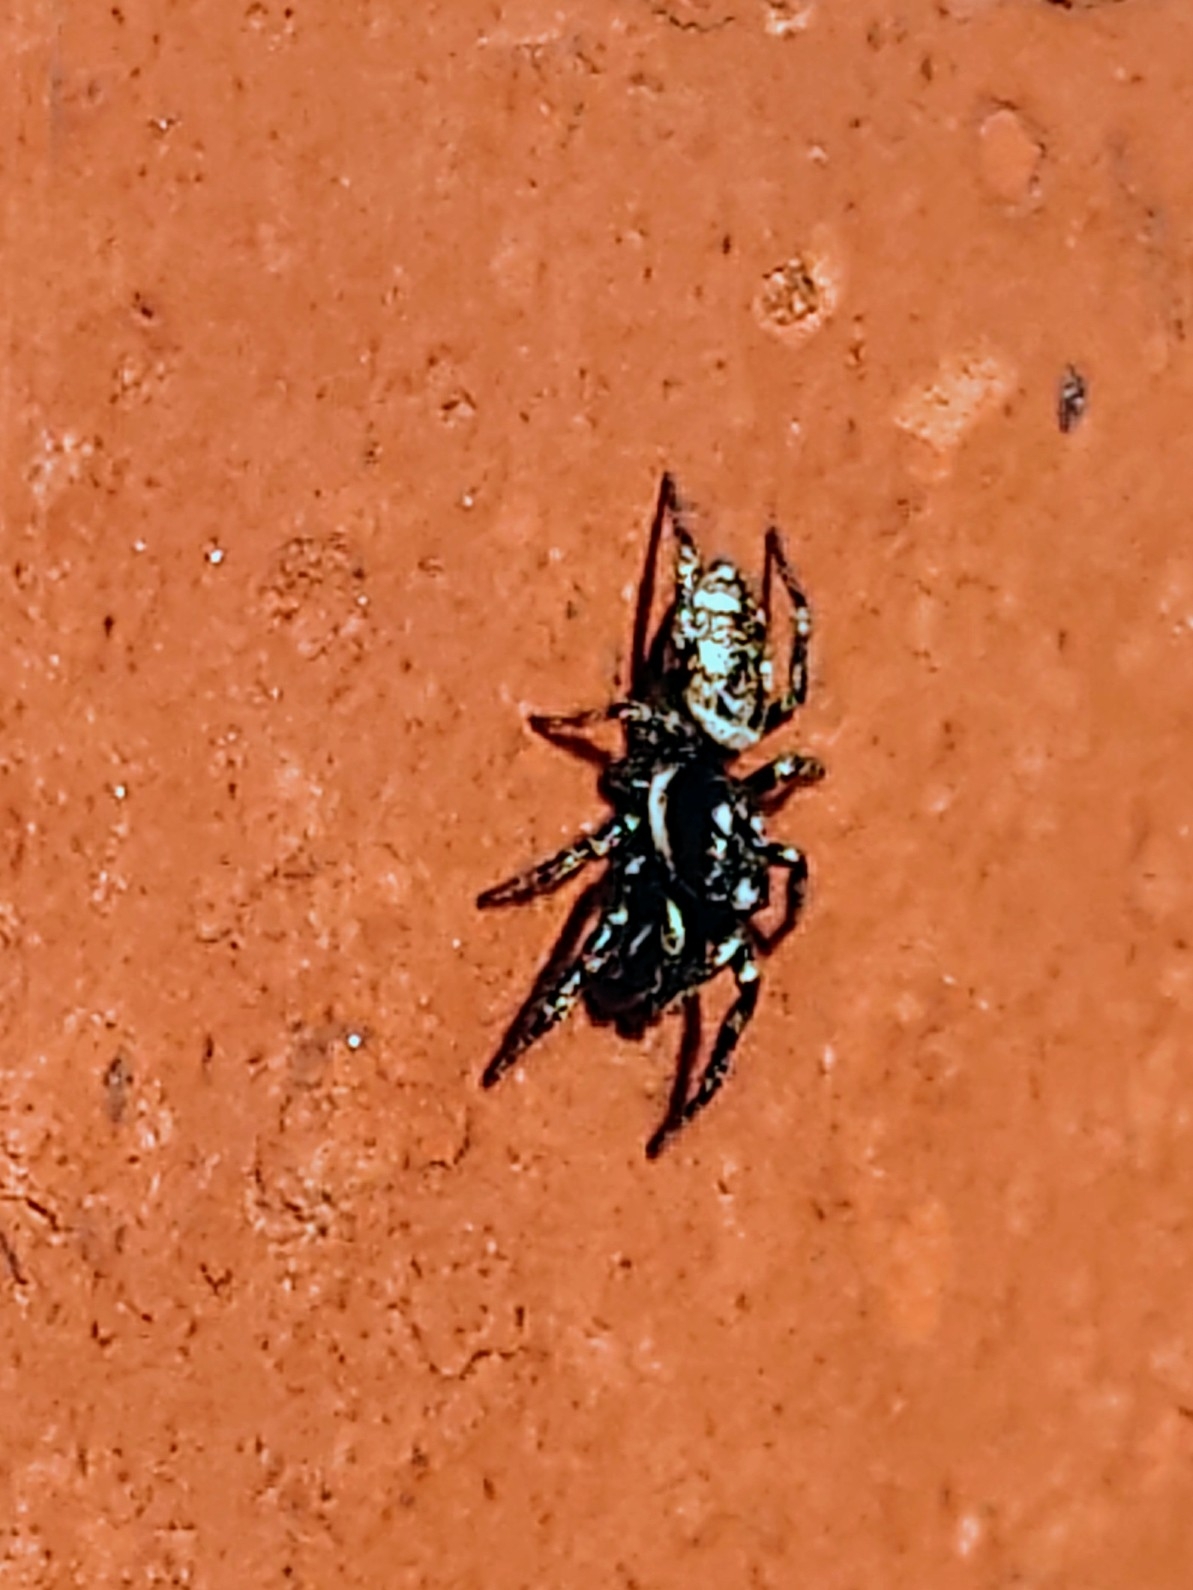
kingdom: Animalia
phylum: Arthropoda
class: Arachnida
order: Araneae
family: Salticidae
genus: Salticus
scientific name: Salticus scenicus
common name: Zebra jumper
